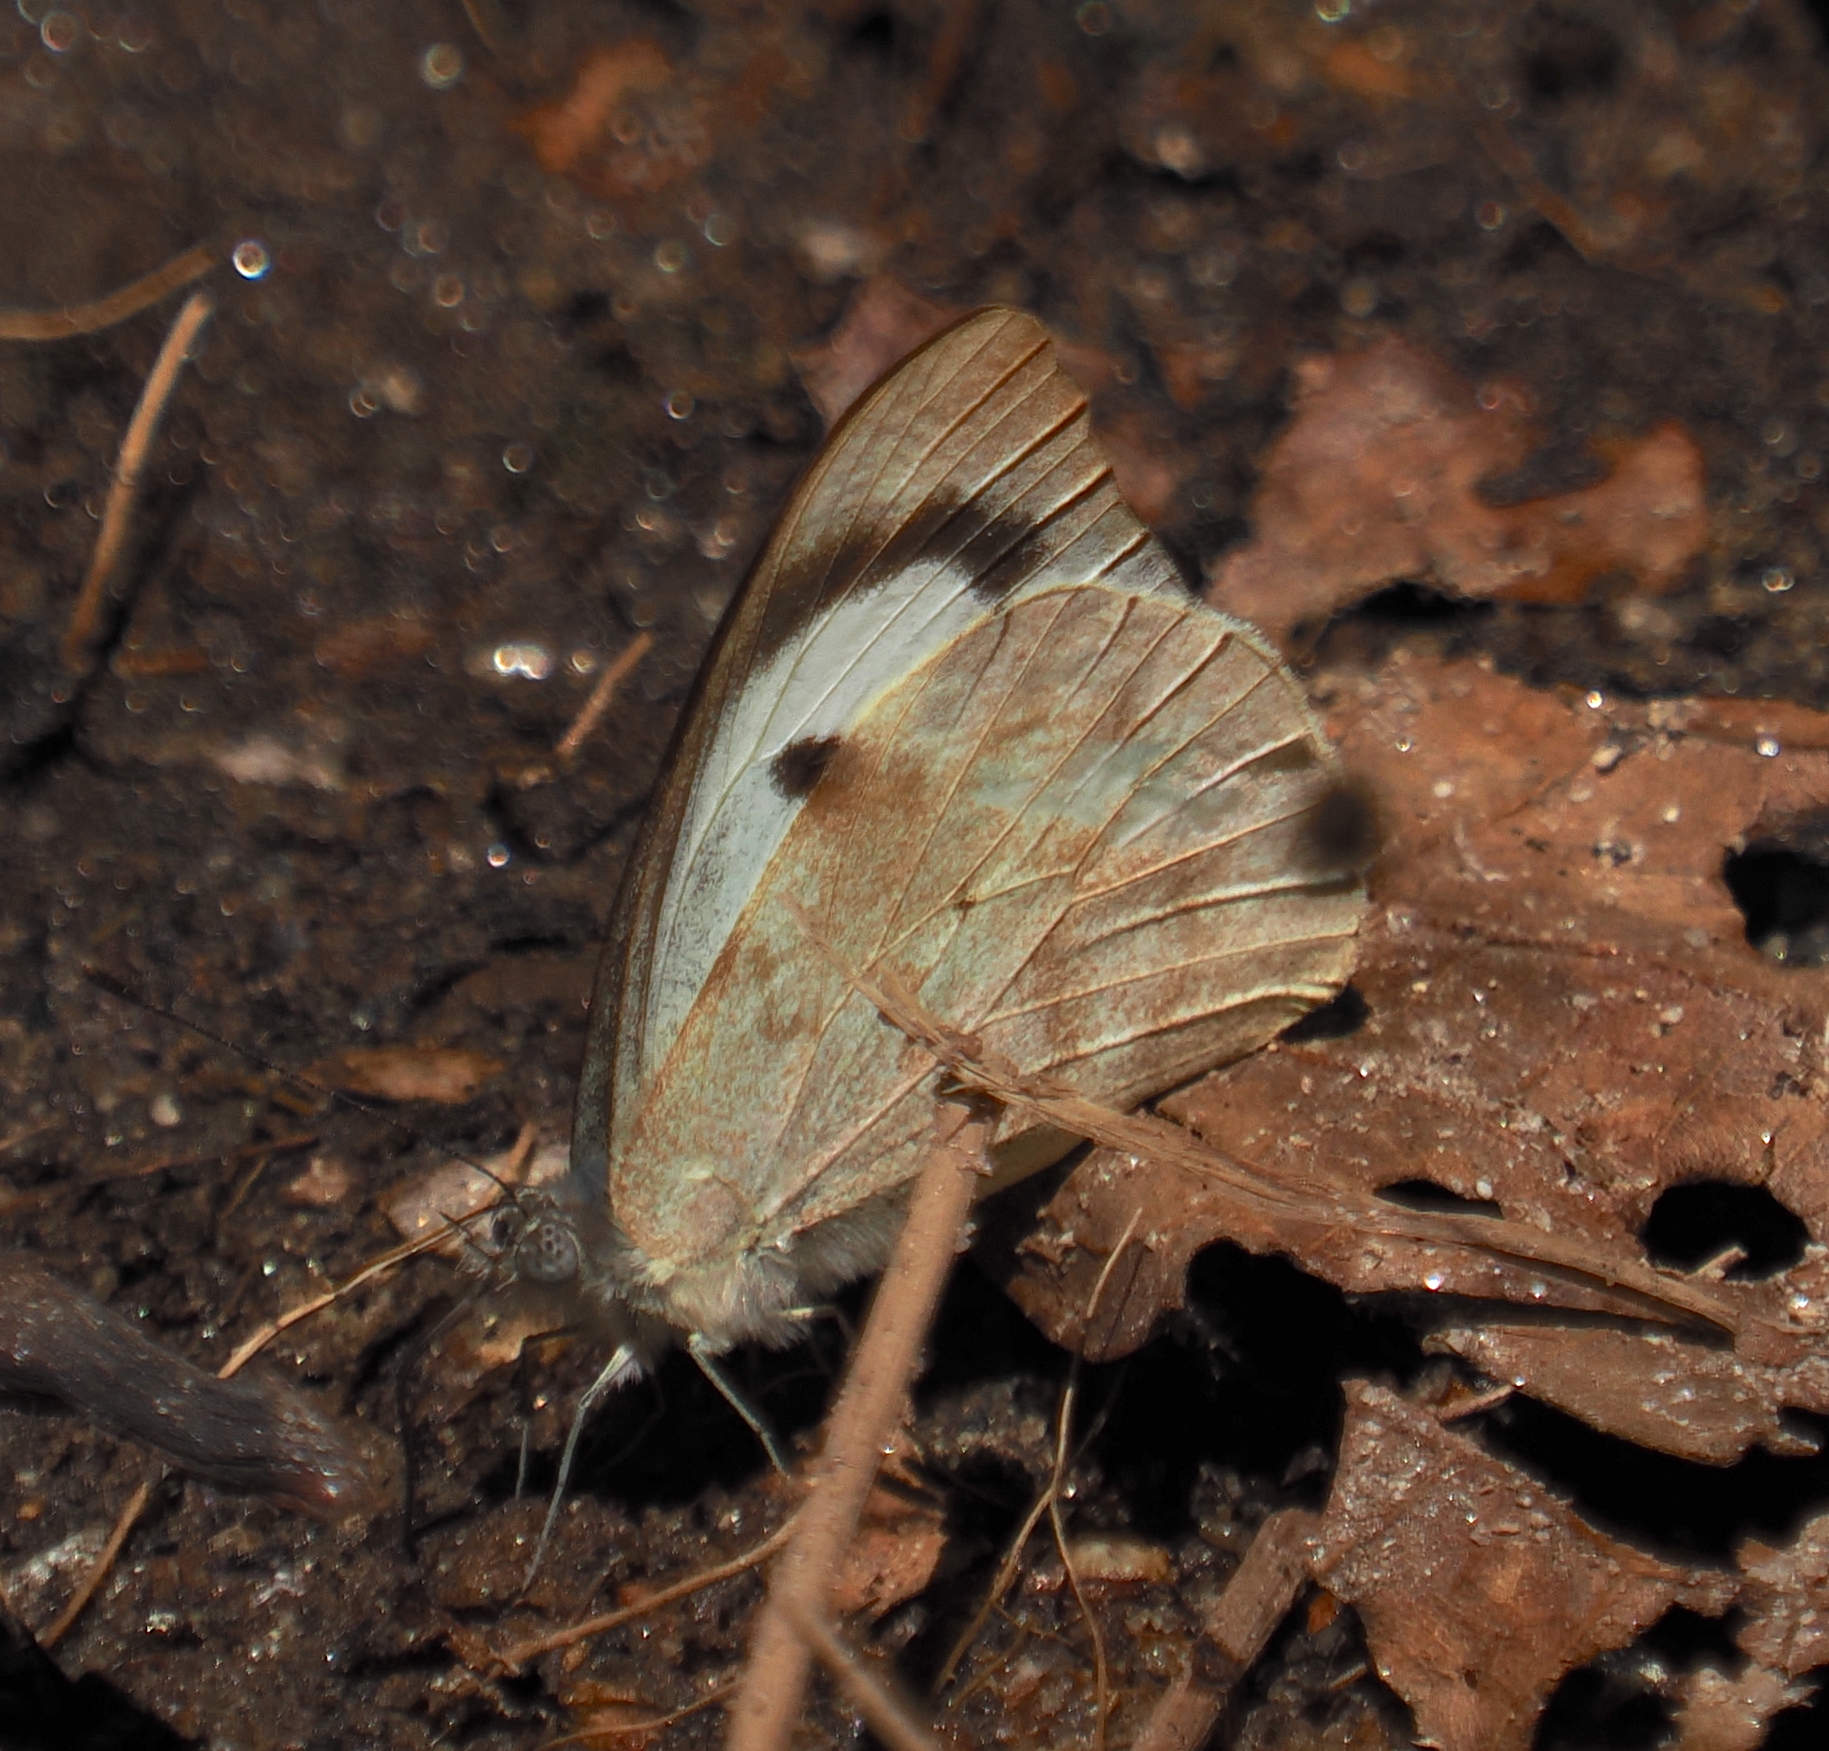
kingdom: Animalia
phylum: Arthropoda
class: Insecta
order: Lepidoptera
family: Pieridae
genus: Appias
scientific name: Appias indra
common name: Plain puffin
